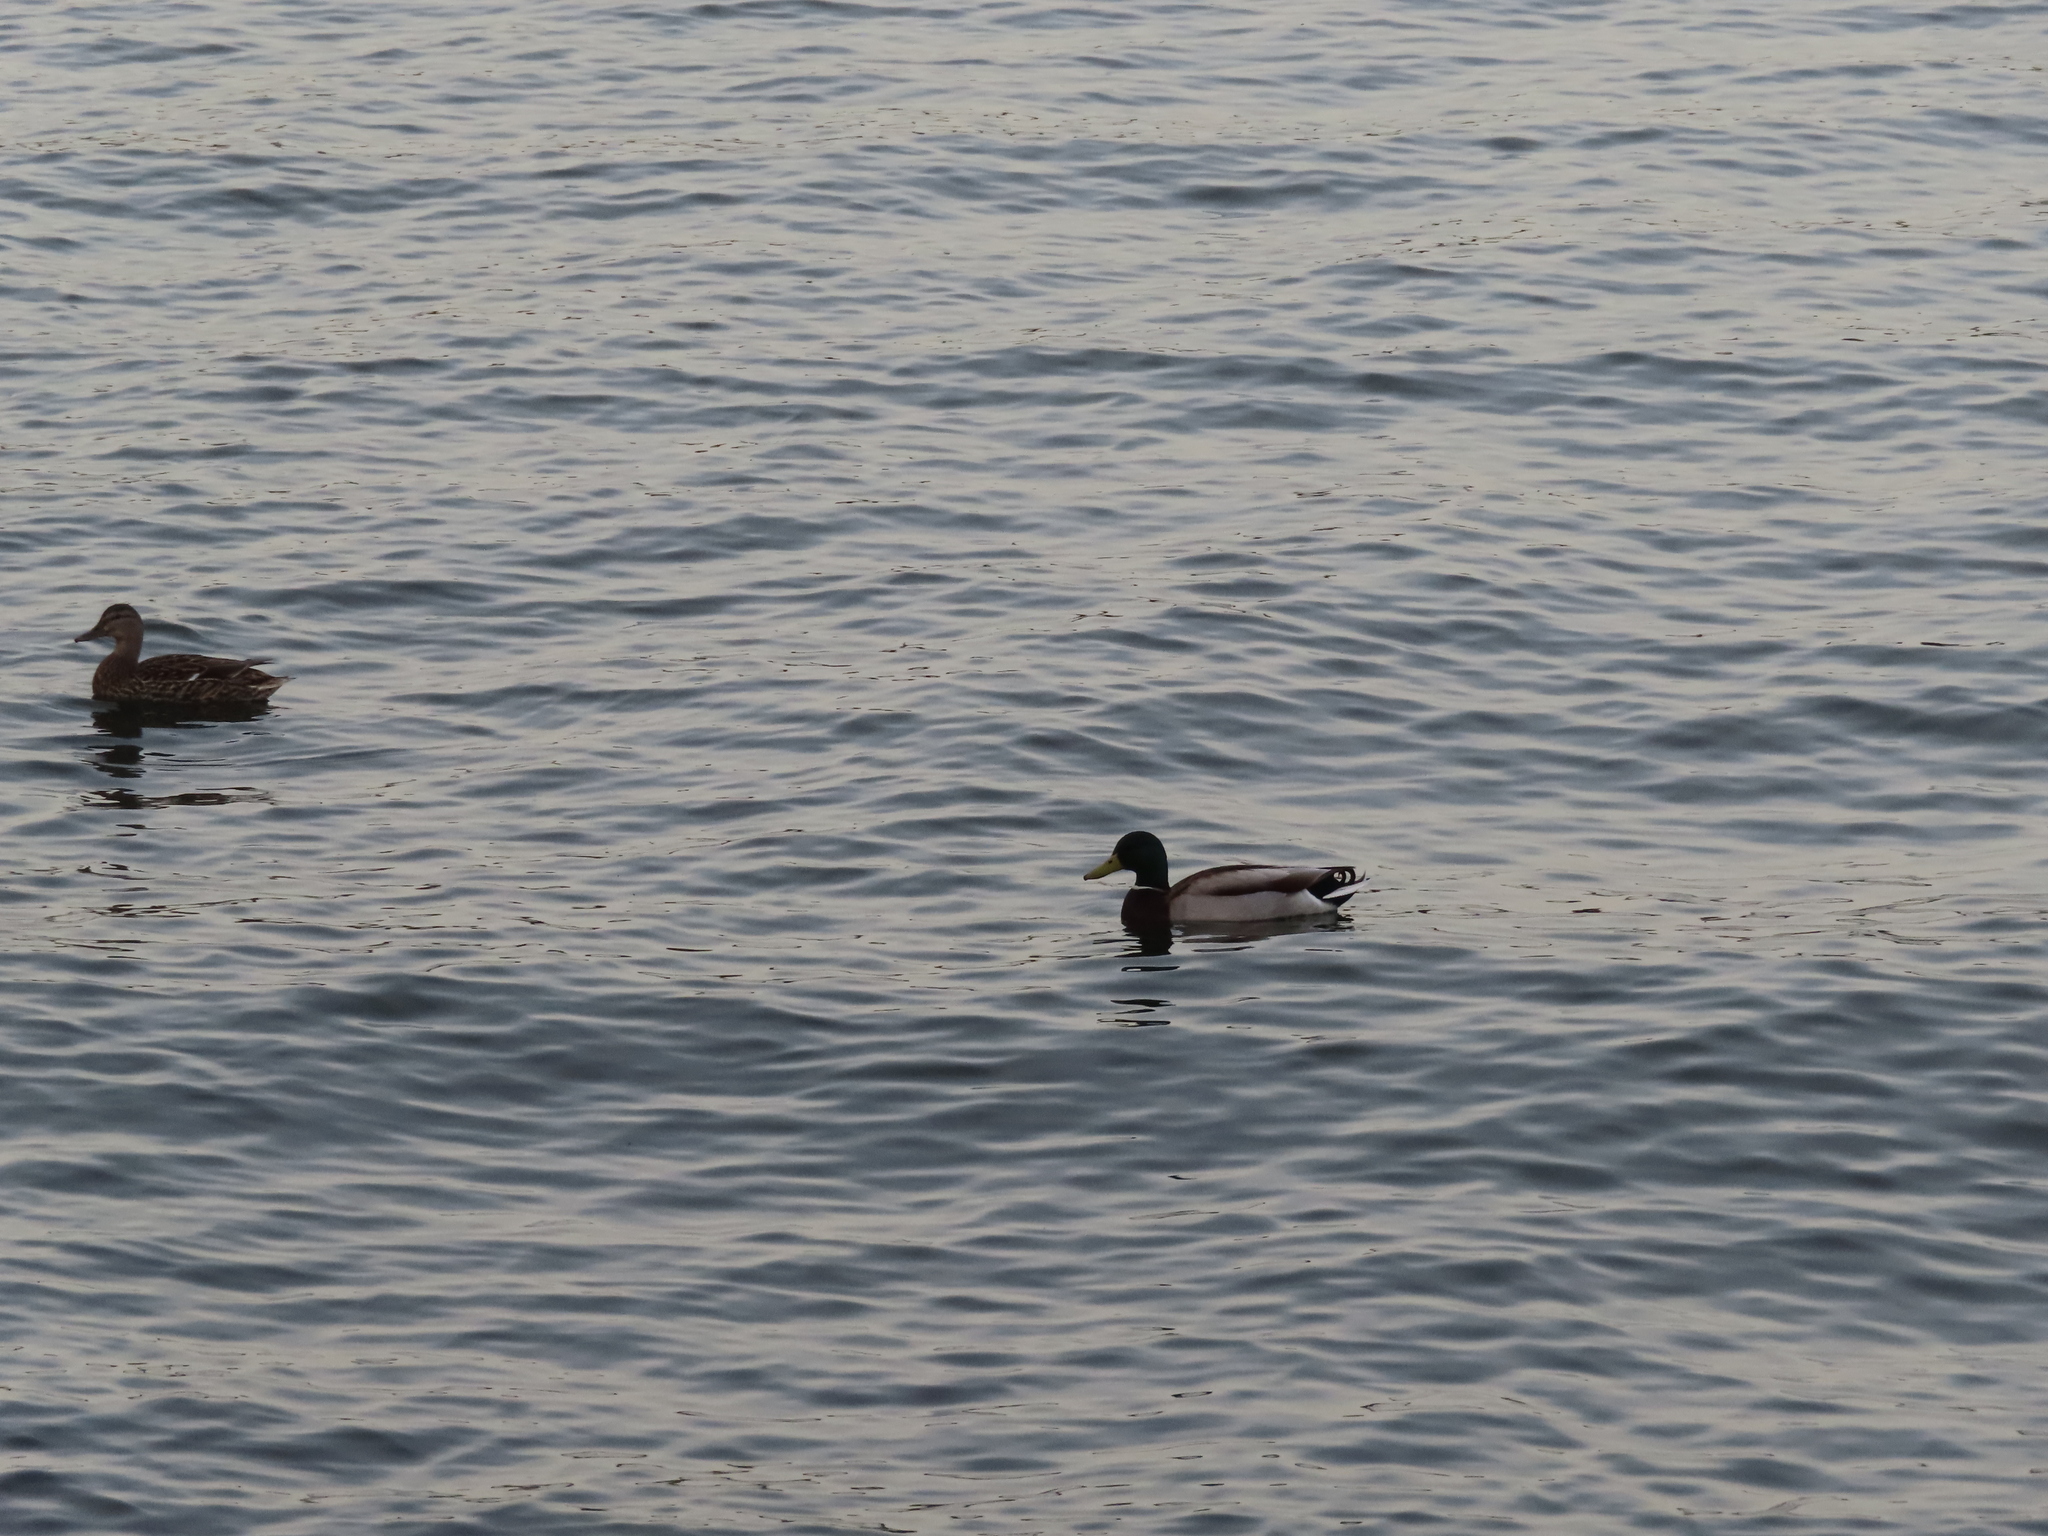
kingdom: Animalia
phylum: Chordata
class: Aves
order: Anseriformes
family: Anatidae
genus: Anas
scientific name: Anas platyrhynchos
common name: Mallard
